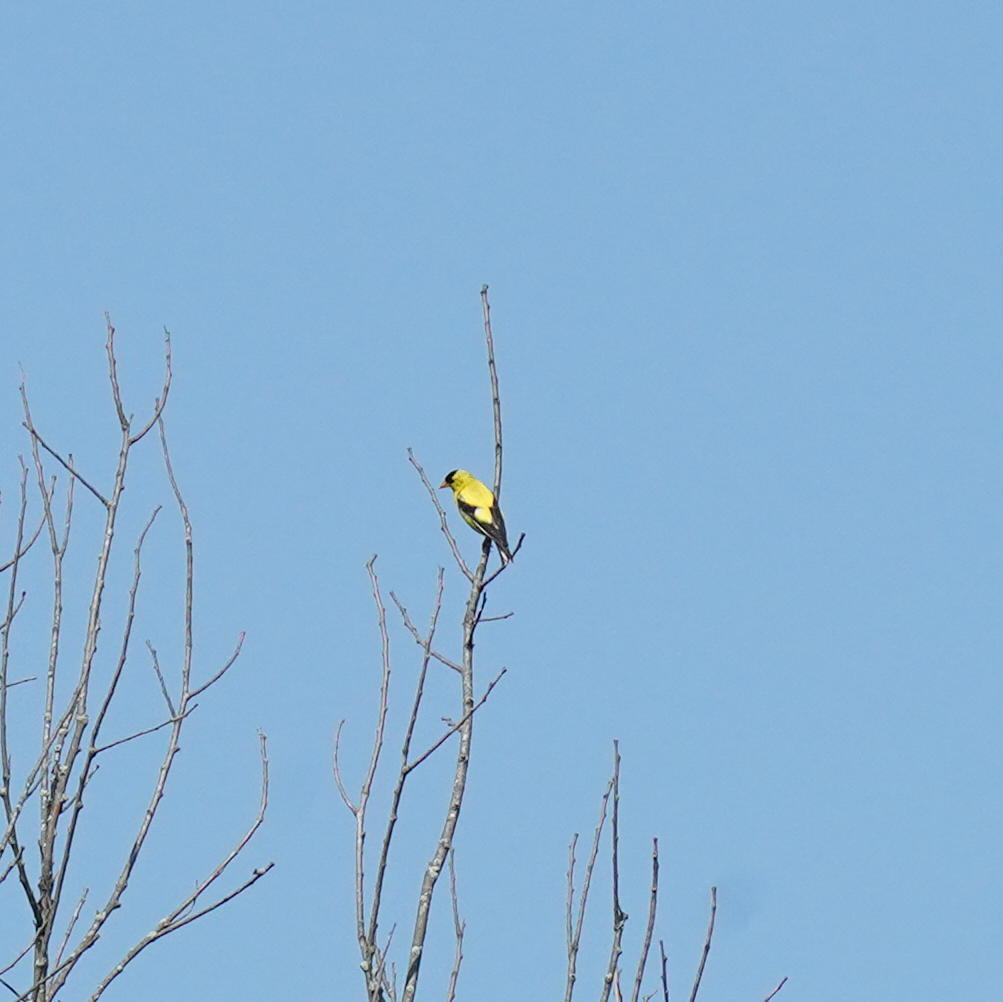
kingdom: Animalia
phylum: Chordata
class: Aves
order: Passeriformes
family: Fringillidae
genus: Spinus
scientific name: Spinus tristis
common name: American goldfinch
